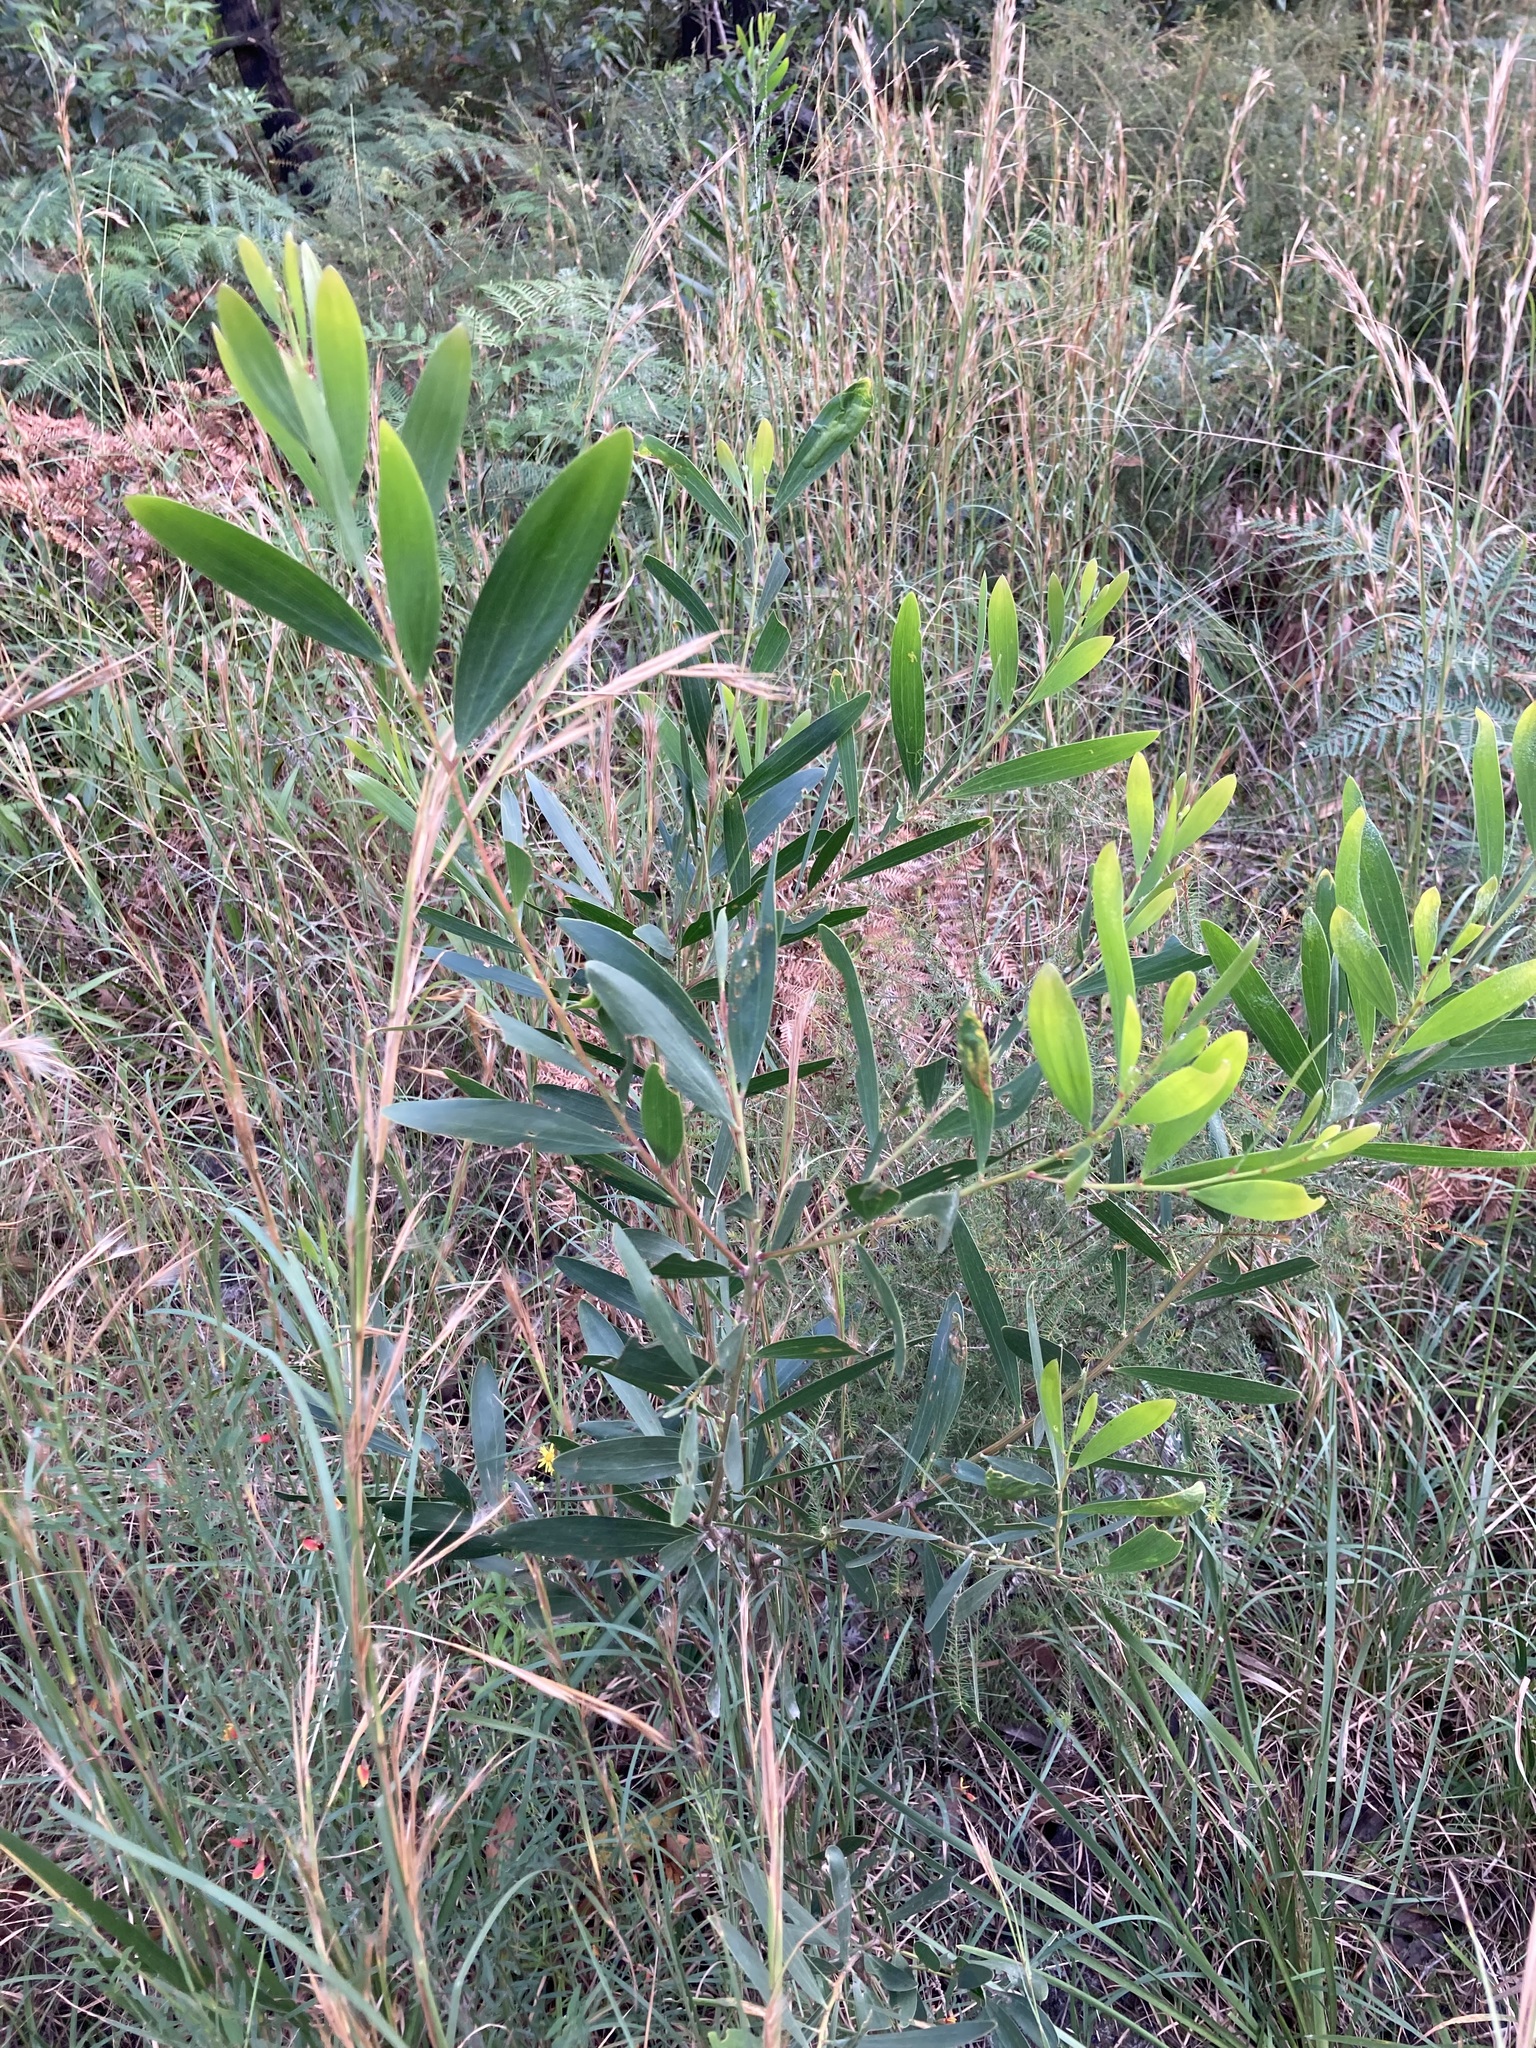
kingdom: Plantae
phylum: Tracheophyta
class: Magnoliopsida
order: Fabales
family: Fabaceae
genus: Acacia
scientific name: Acacia longifolia
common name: Sydney golden wattle
